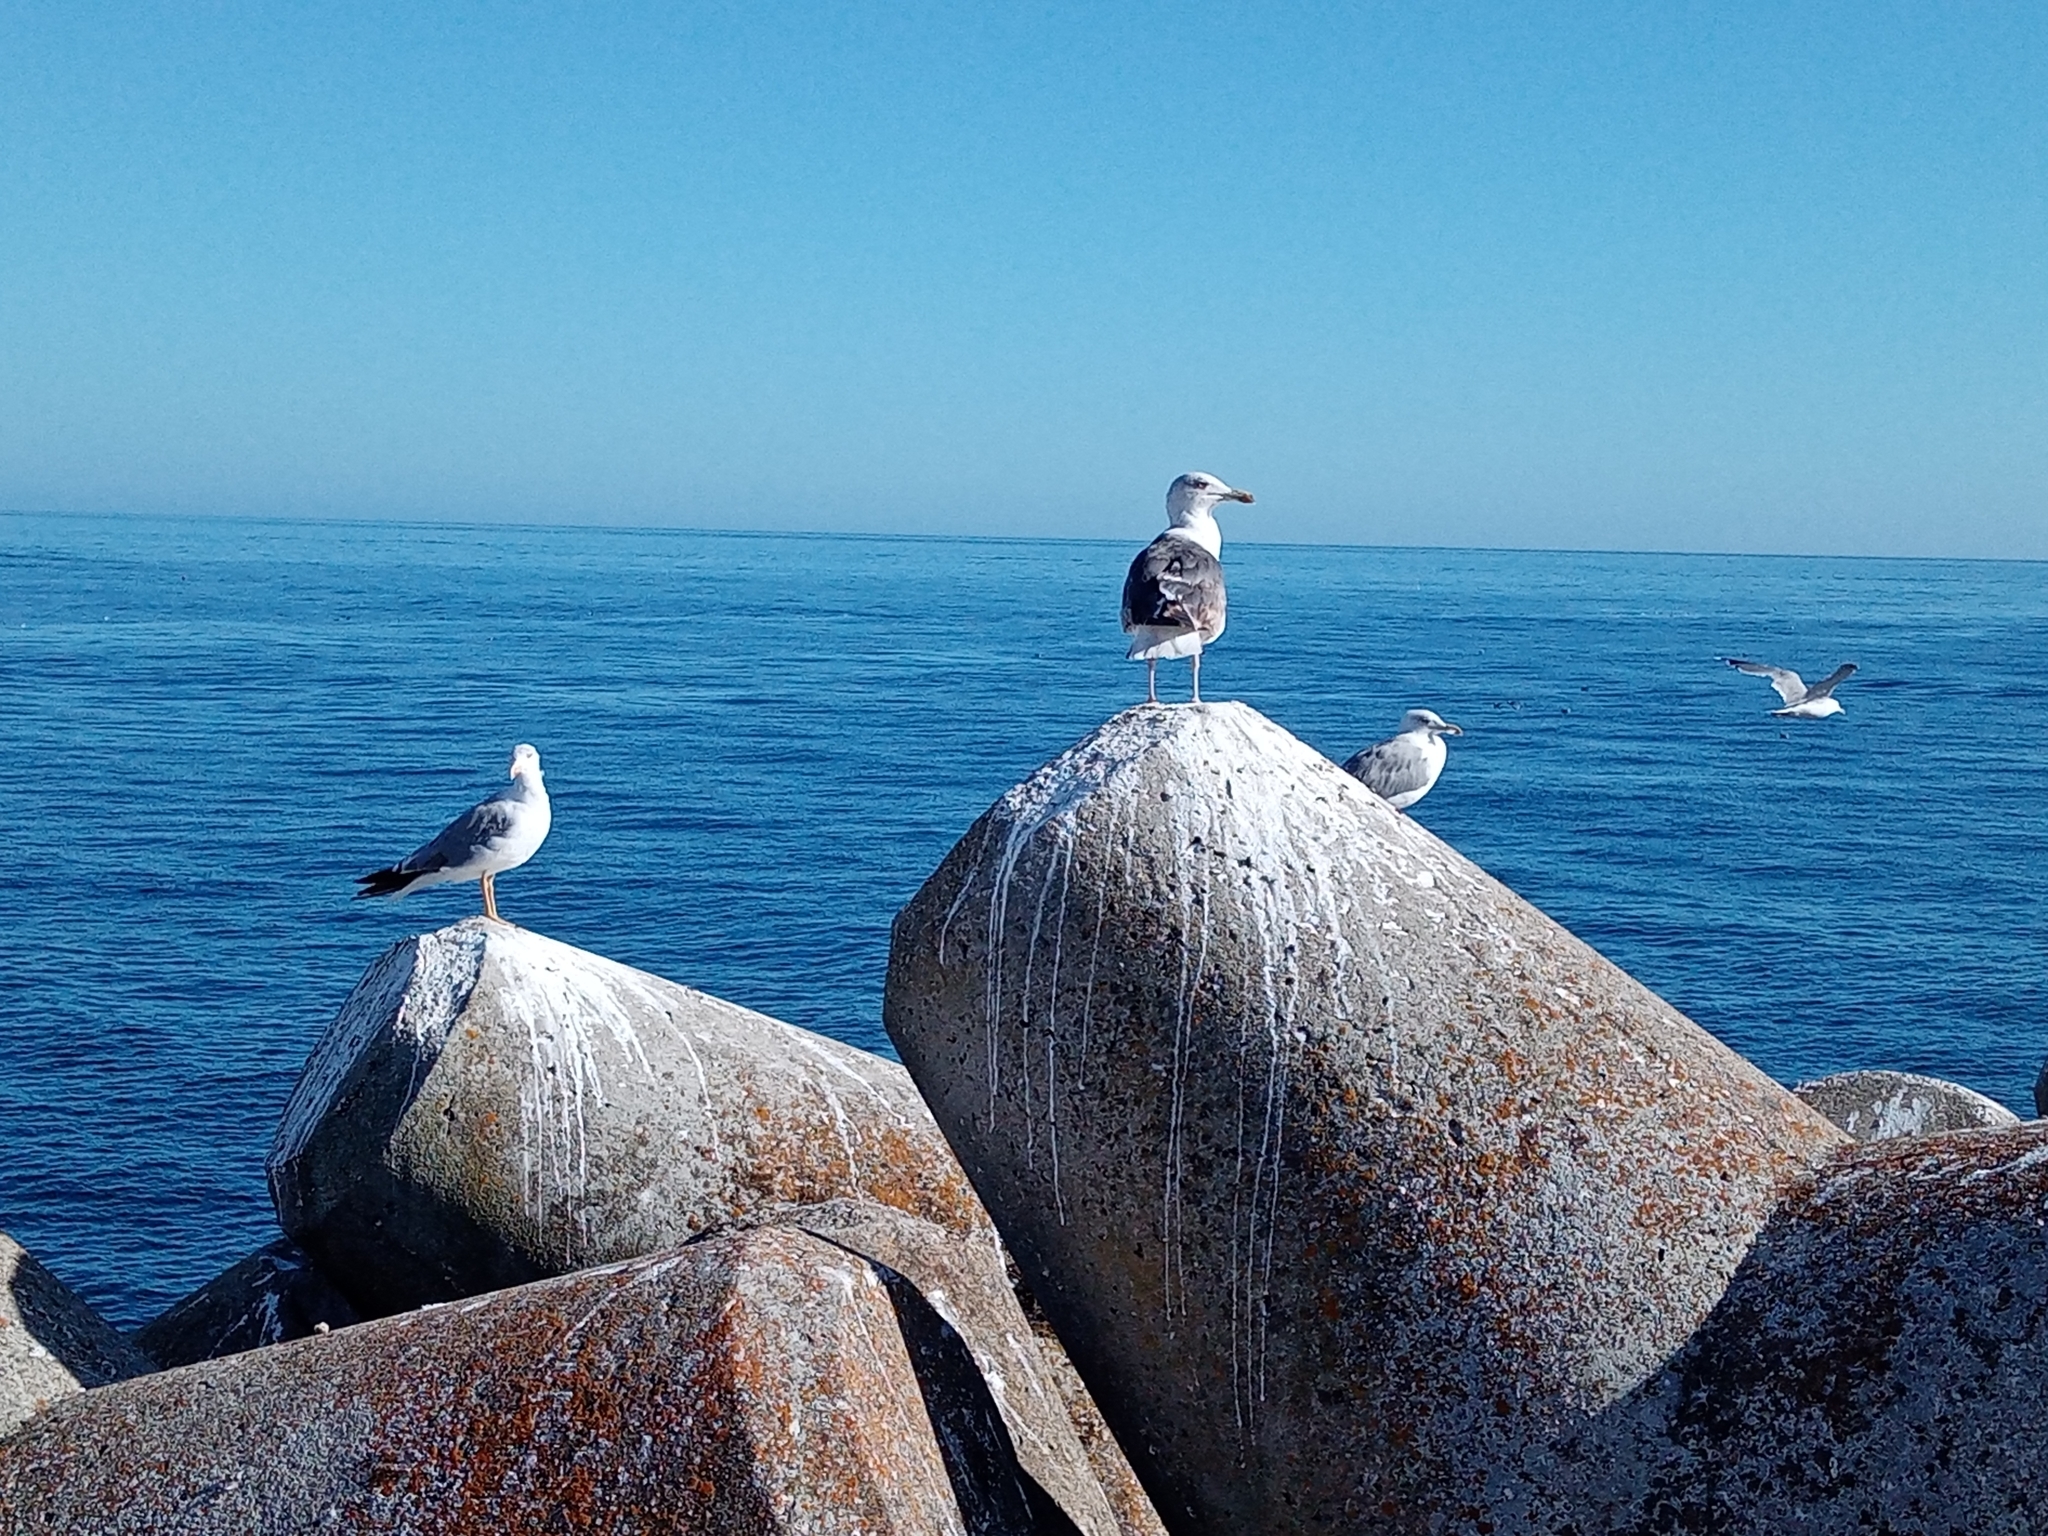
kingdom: Animalia
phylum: Chordata
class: Aves
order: Charadriiformes
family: Laridae
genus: Larus
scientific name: Larus fuscus
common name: Lesser black-backed gull
